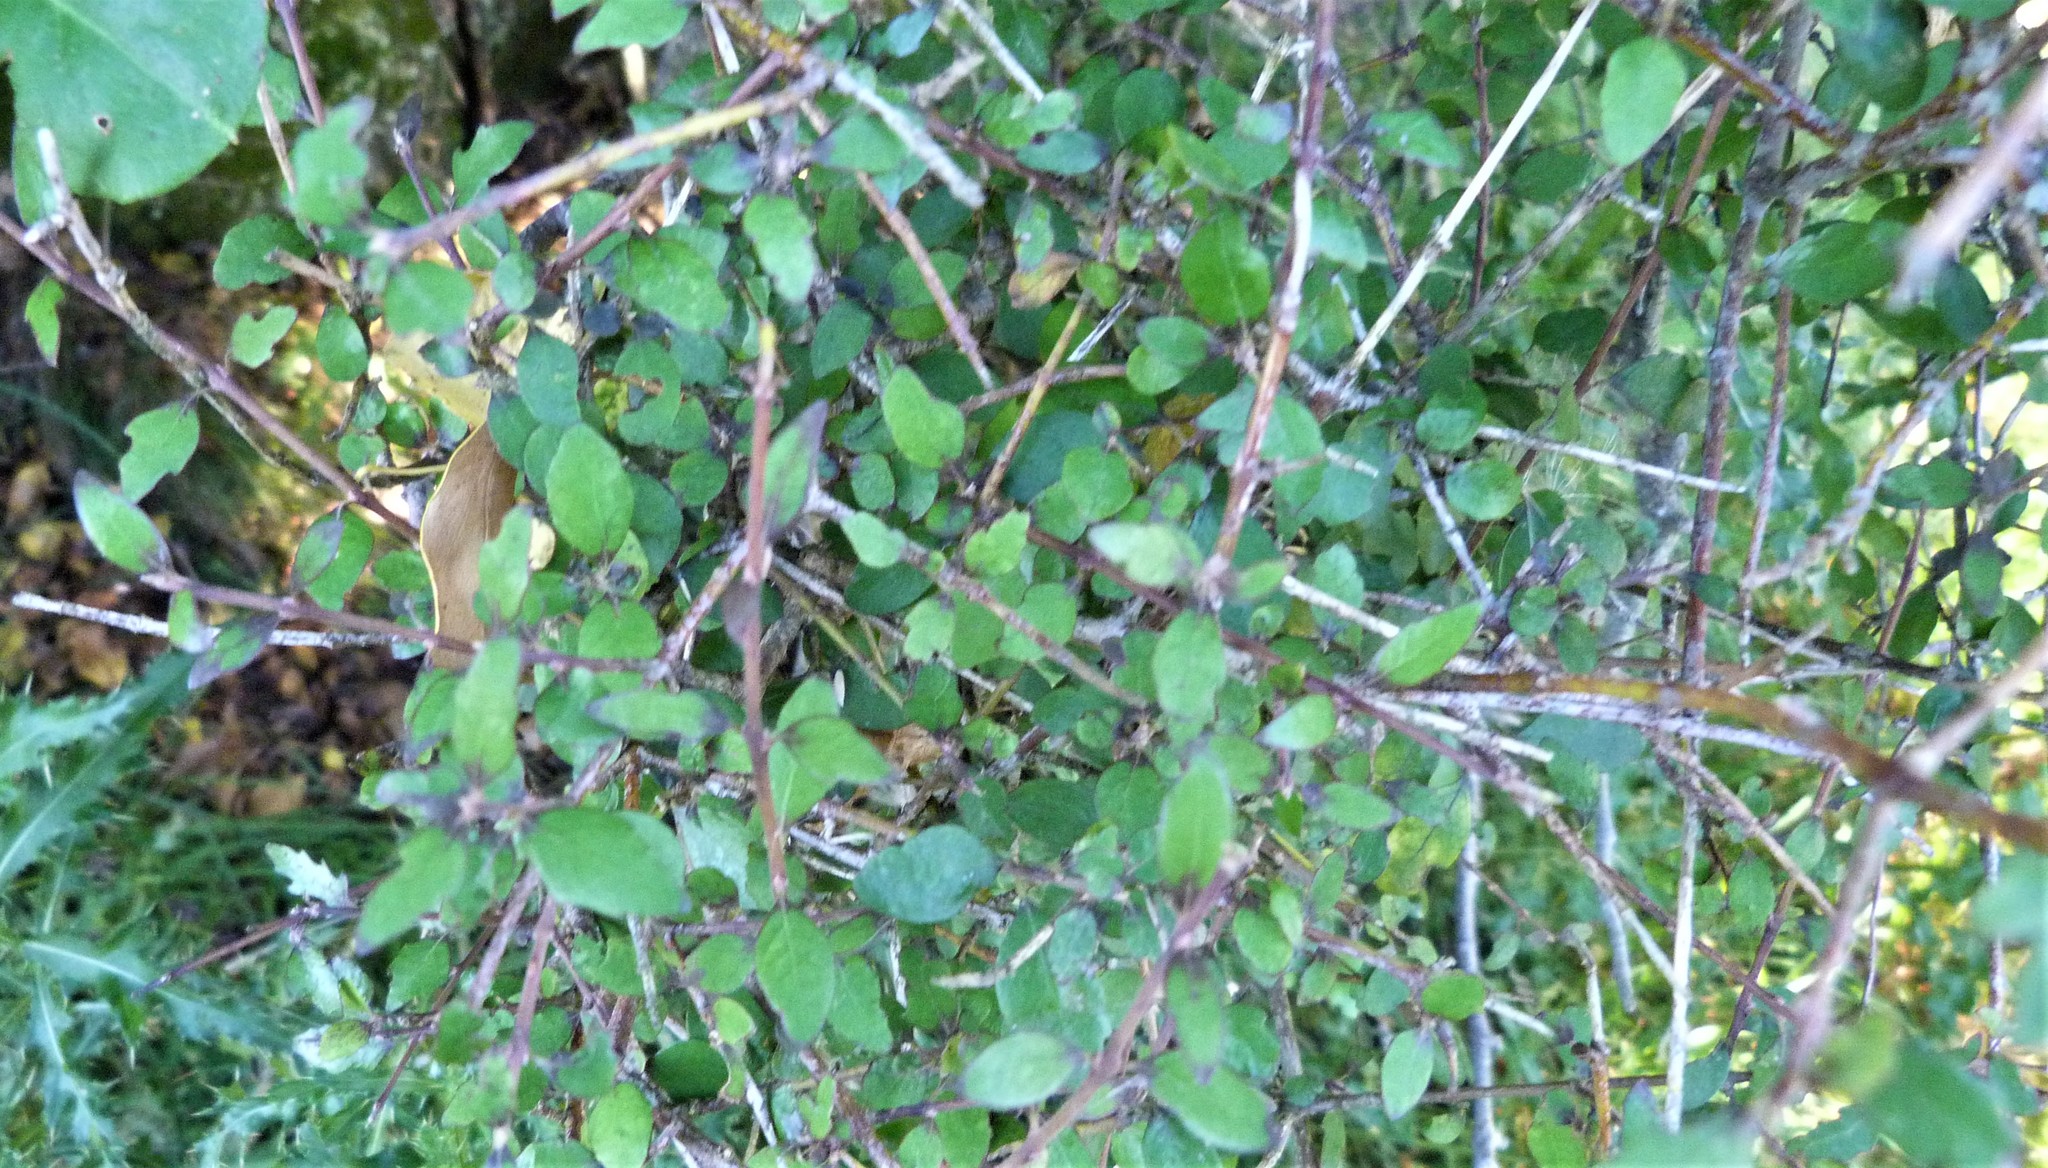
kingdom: Plantae
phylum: Tracheophyta
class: Magnoliopsida
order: Oxalidales
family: Elaeocarpaceae
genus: Aristotelia
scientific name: Aristotelia fruticosa
